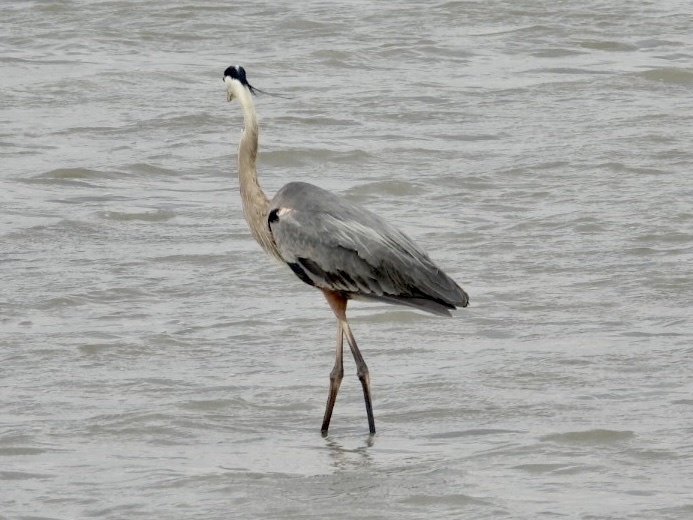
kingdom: Animalia
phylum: Chordata
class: Aves
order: Pelecaniformes
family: Ardeidae
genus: Ardea
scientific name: Ardea herodias
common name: Great blue heron
